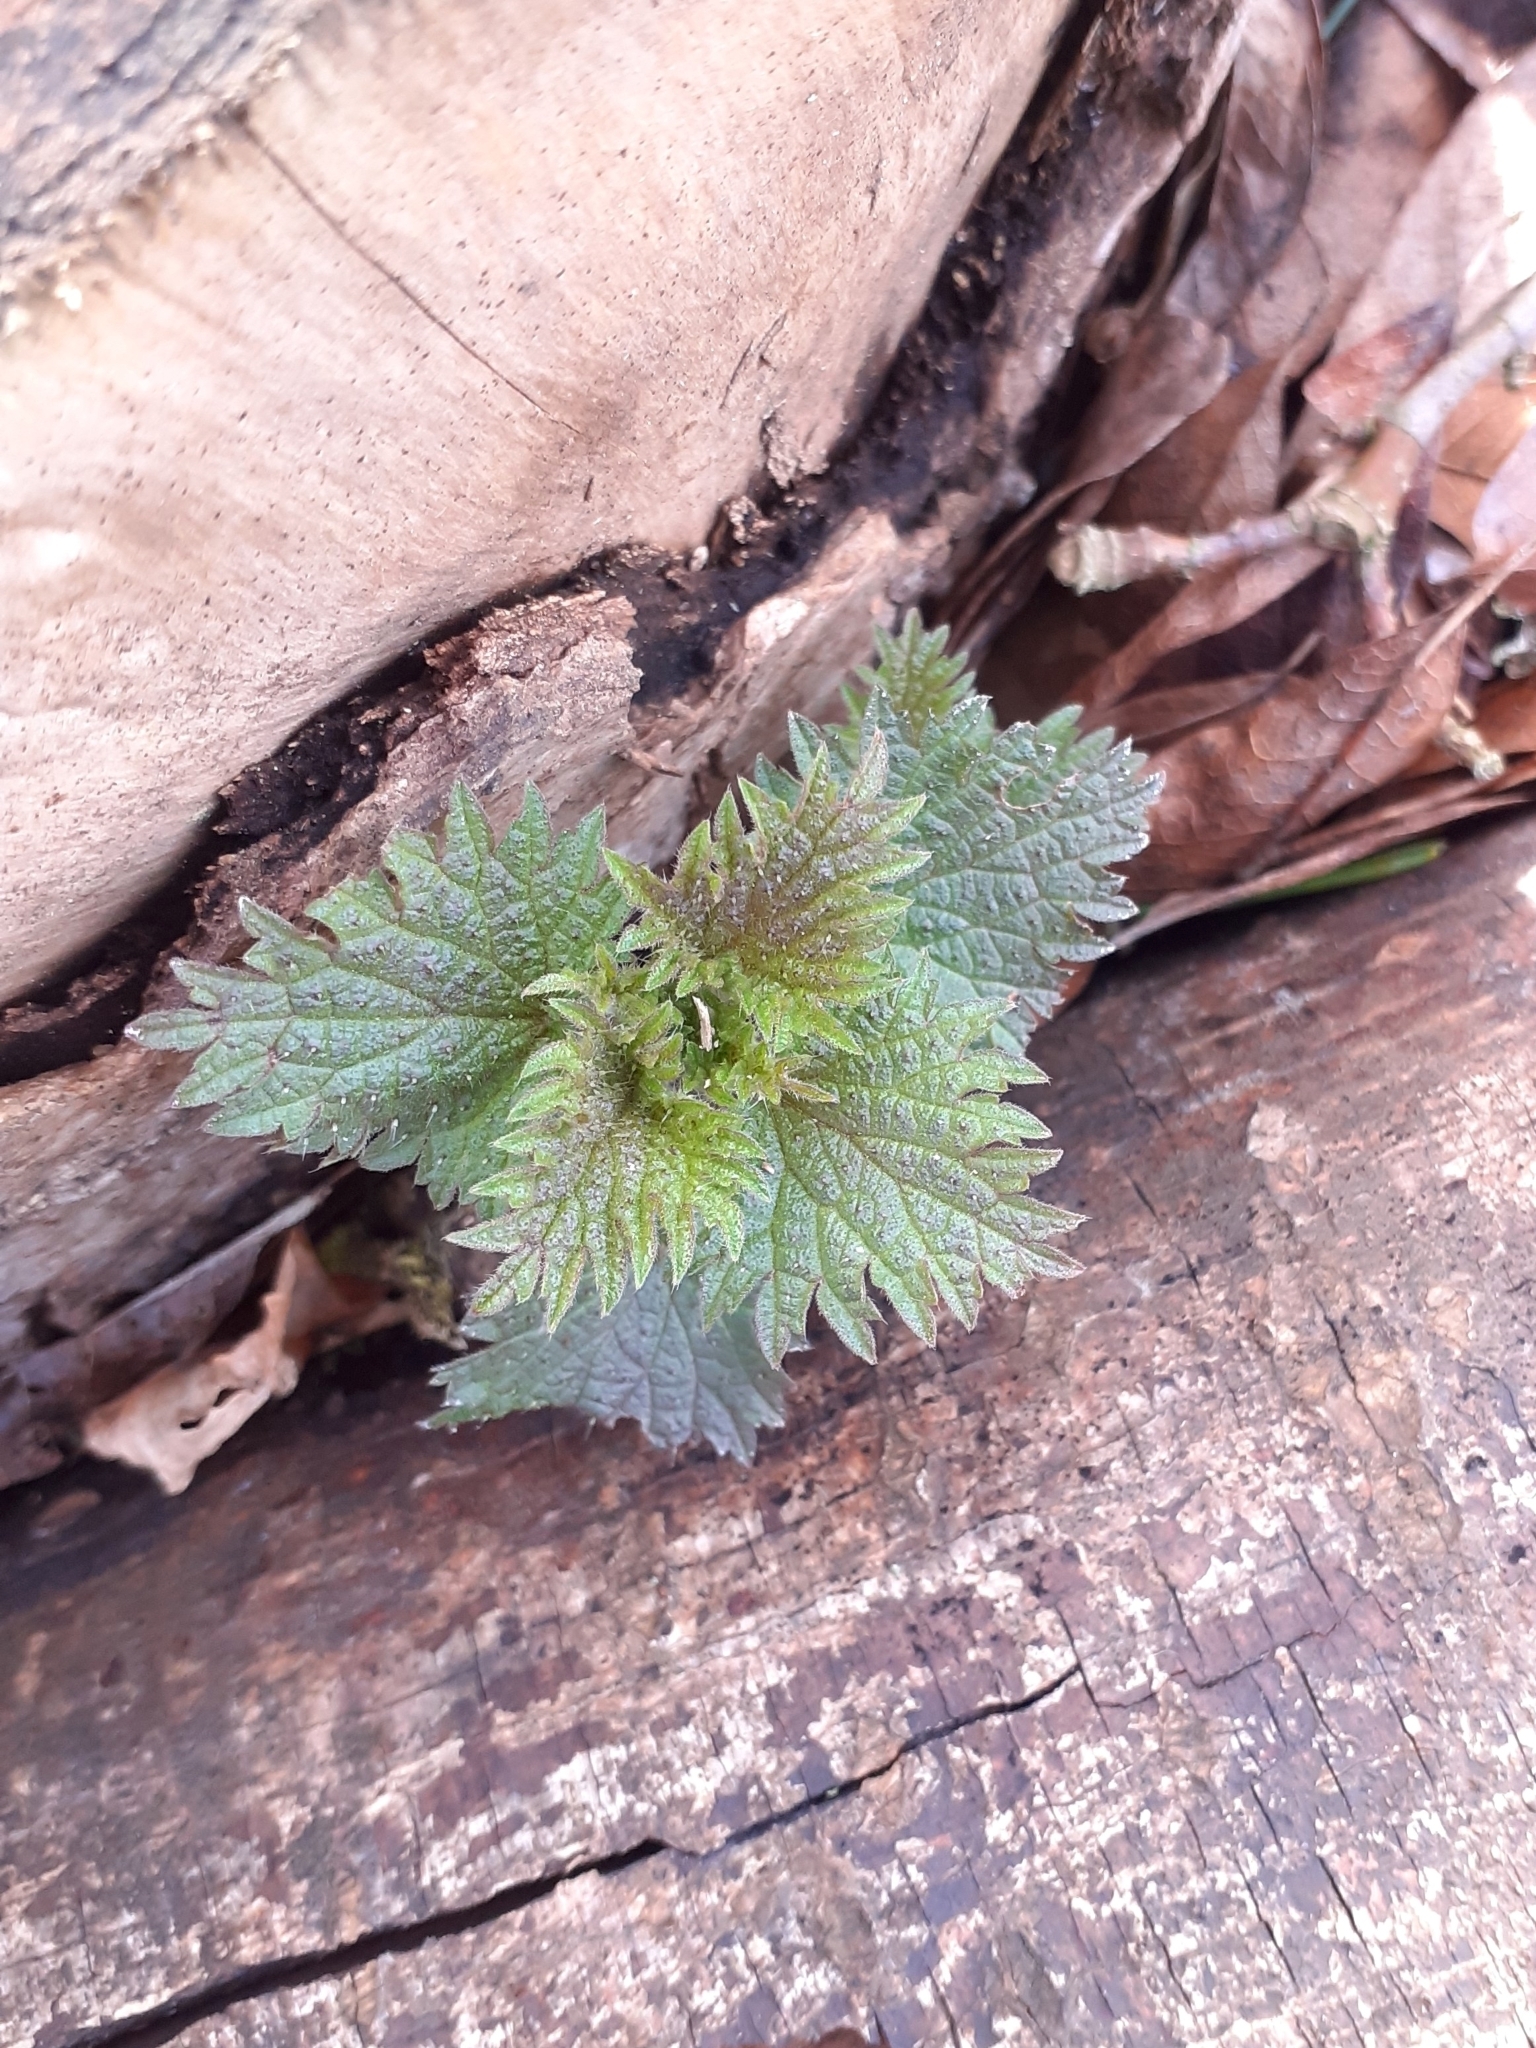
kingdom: Plantae
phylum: Tracheophyta
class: Magnoliopsida
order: Rosales
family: Urticaceae
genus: Urtica
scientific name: Urtica dioica
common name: Common nettle
